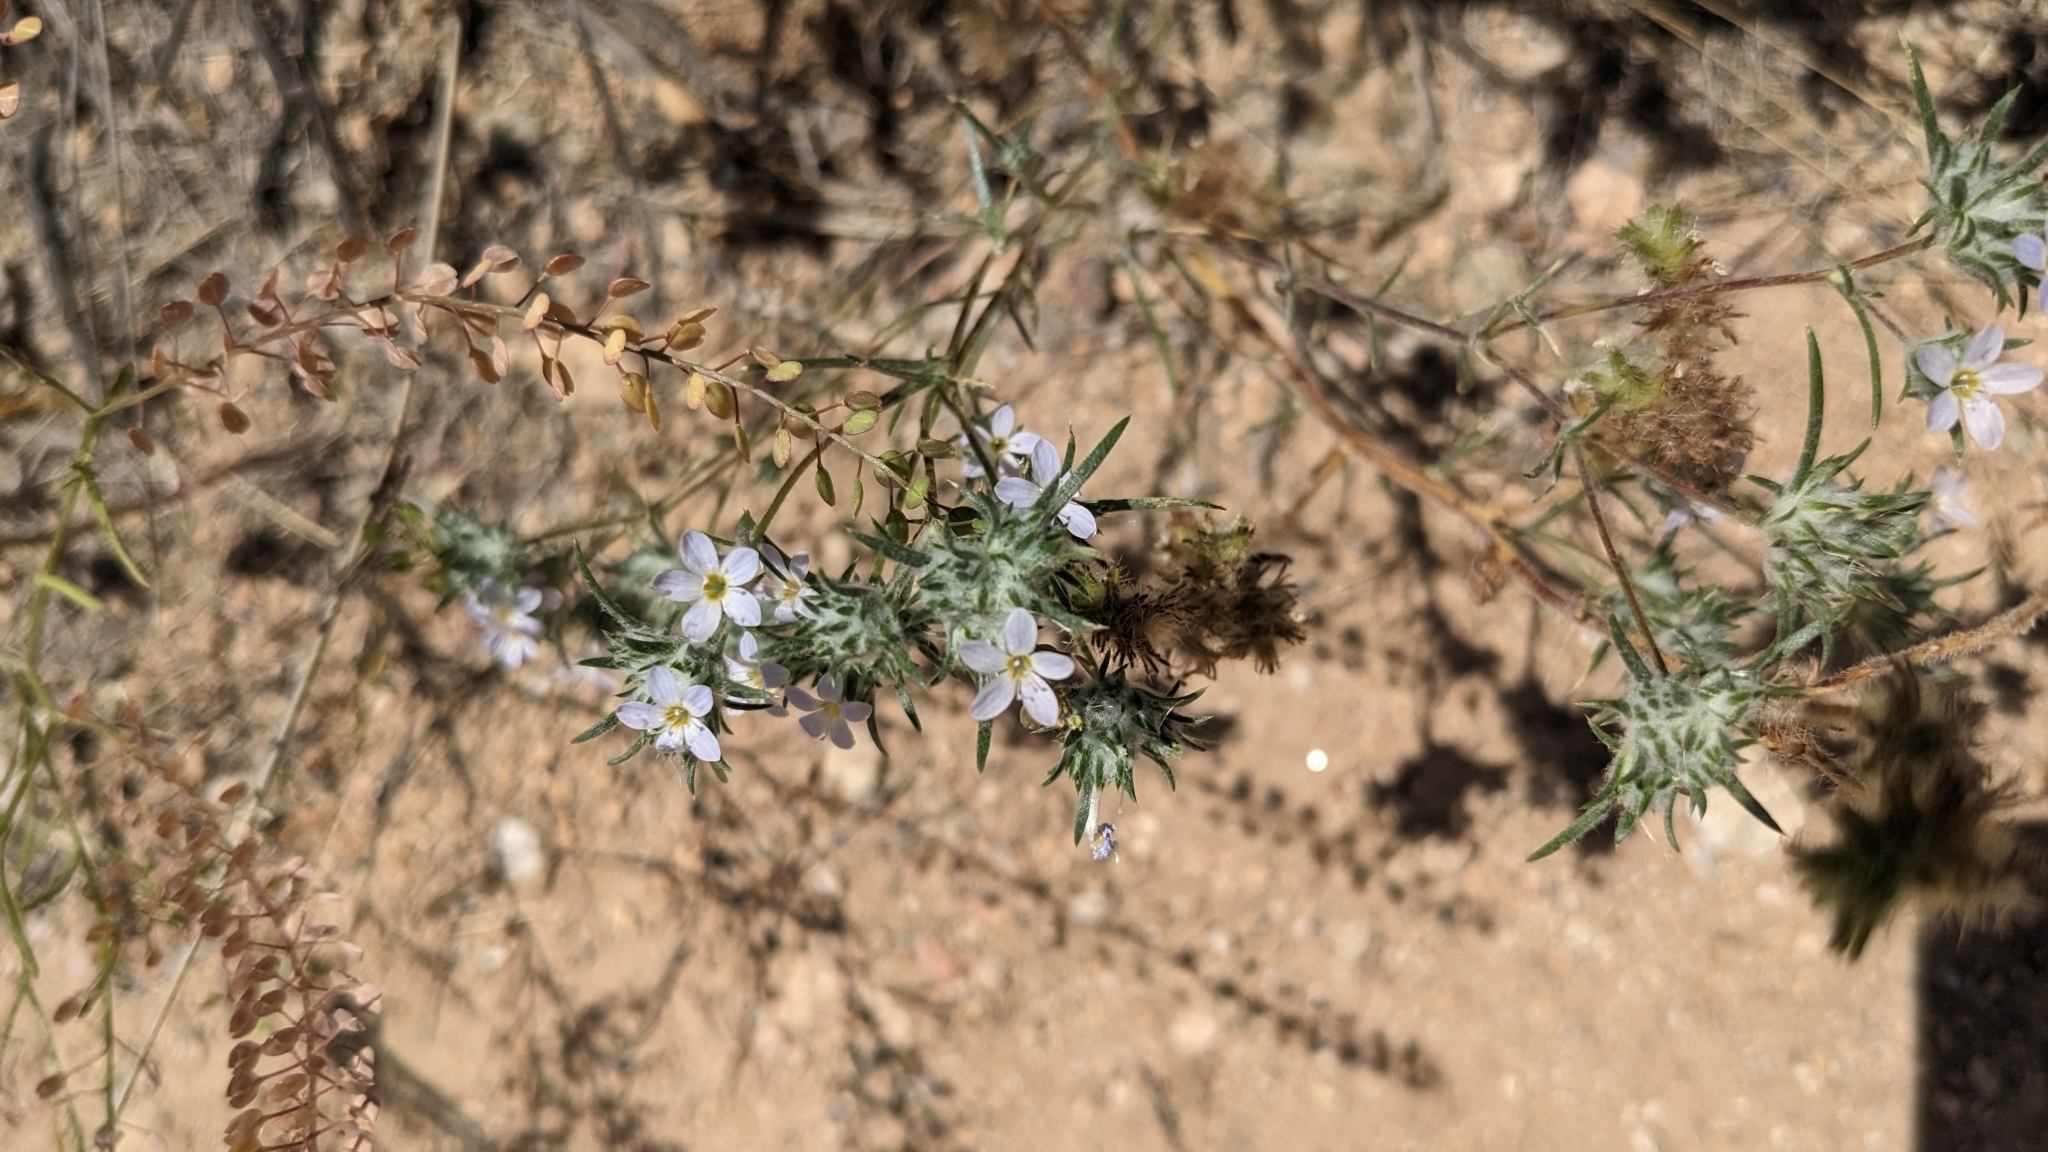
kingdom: Plantae
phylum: Tracheophyta
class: Magnoliopsida
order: Ericales
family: Polemoniaceae
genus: Eriastrum
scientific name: Eriastrum diffusum
